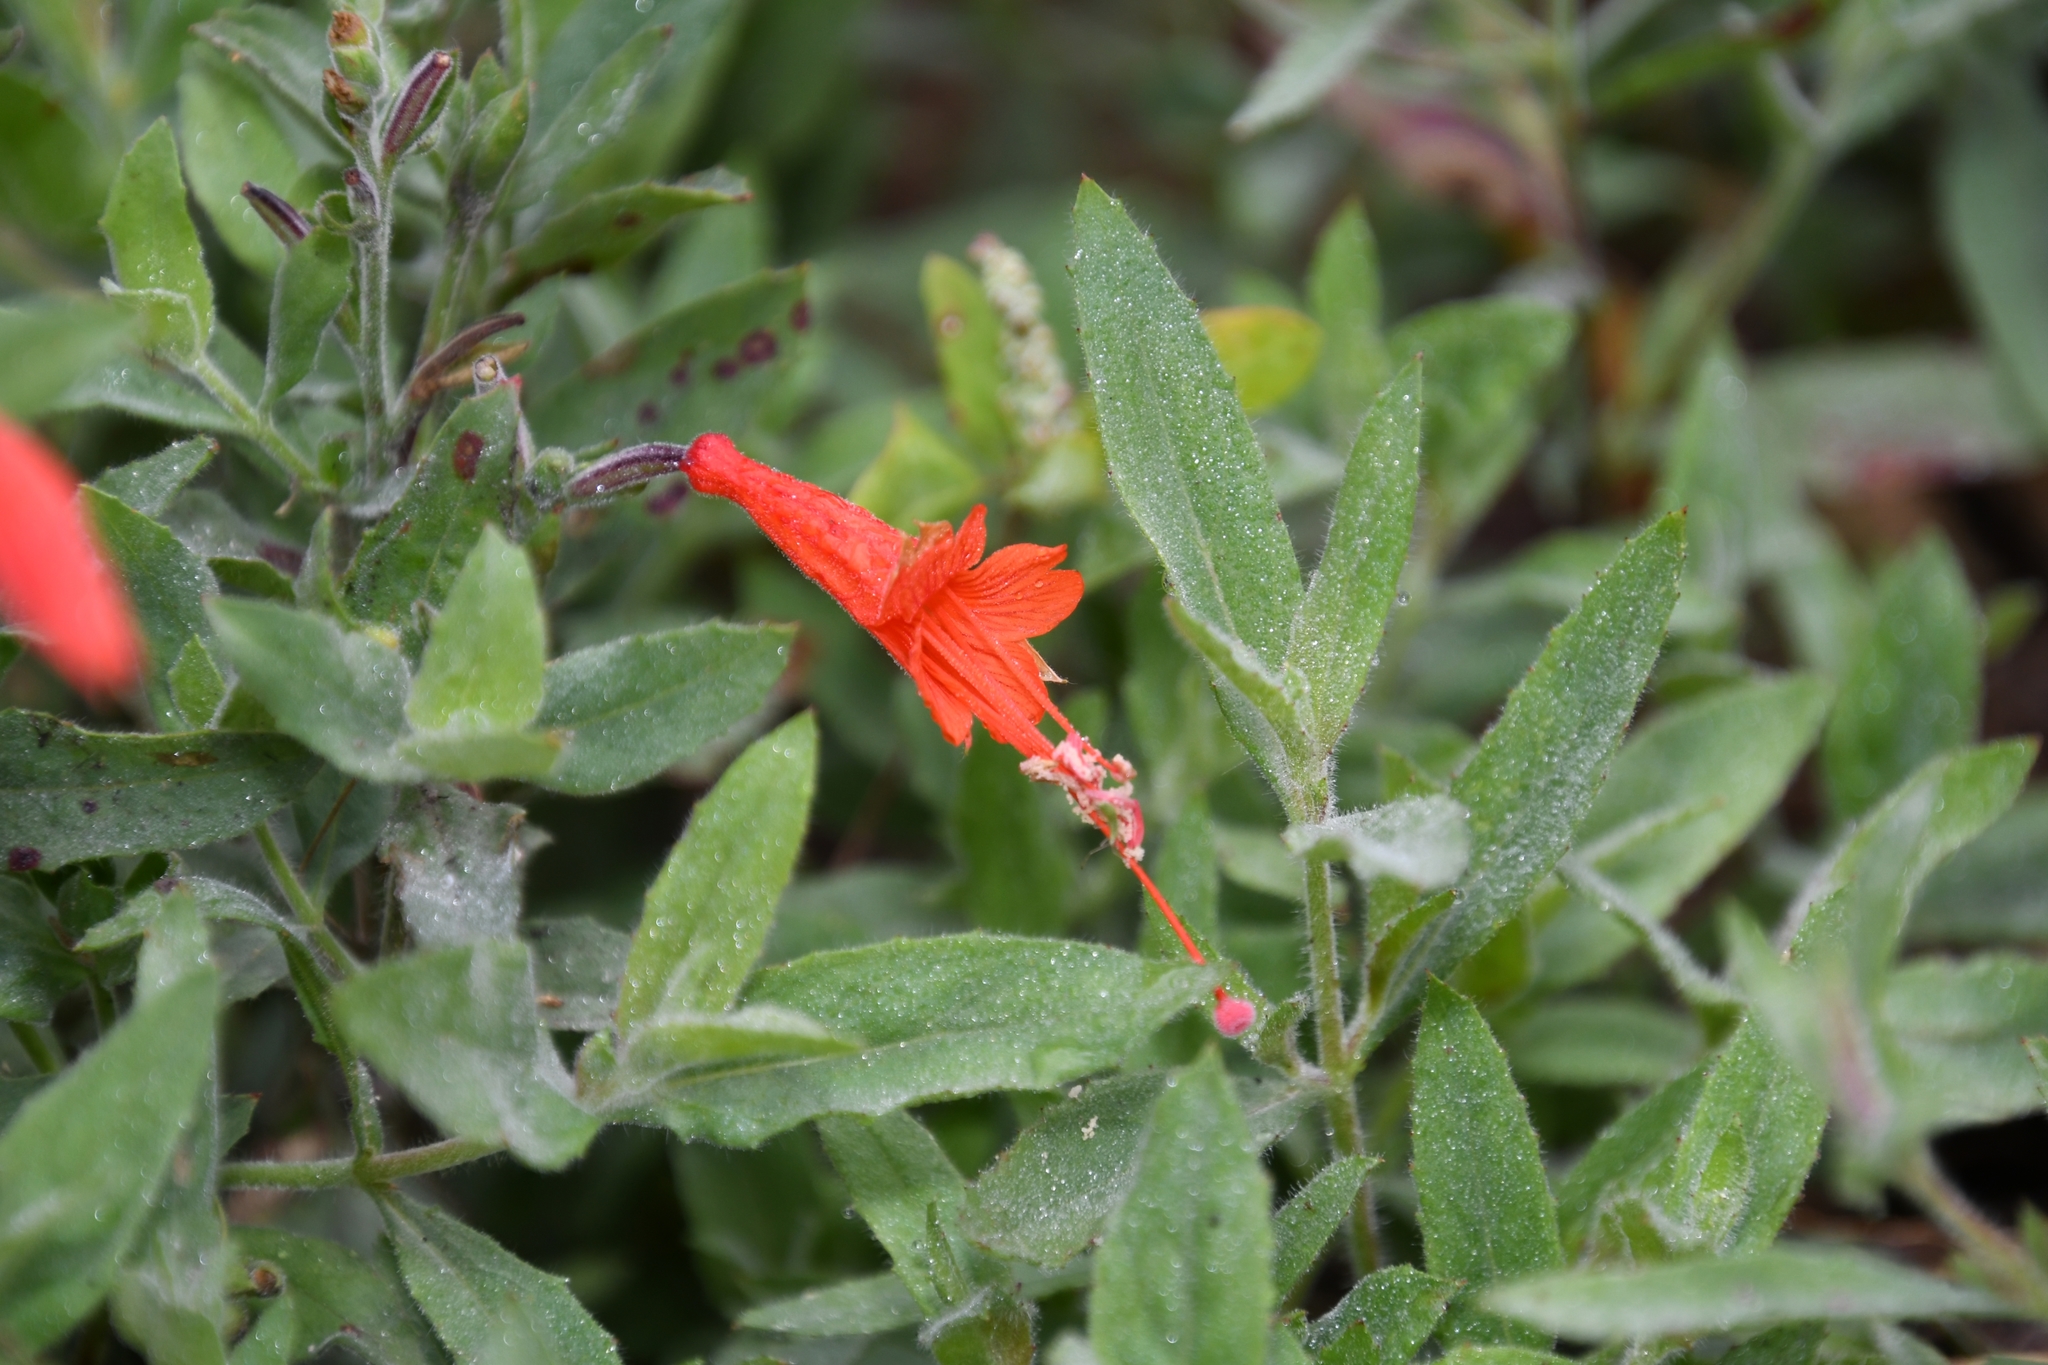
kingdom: Plantae
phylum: Tracheophyta
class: Magnoliopsida
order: Myrtales
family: Onagraceae
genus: Epilobium
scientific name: Epilobium canum
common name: California-fuchsia
